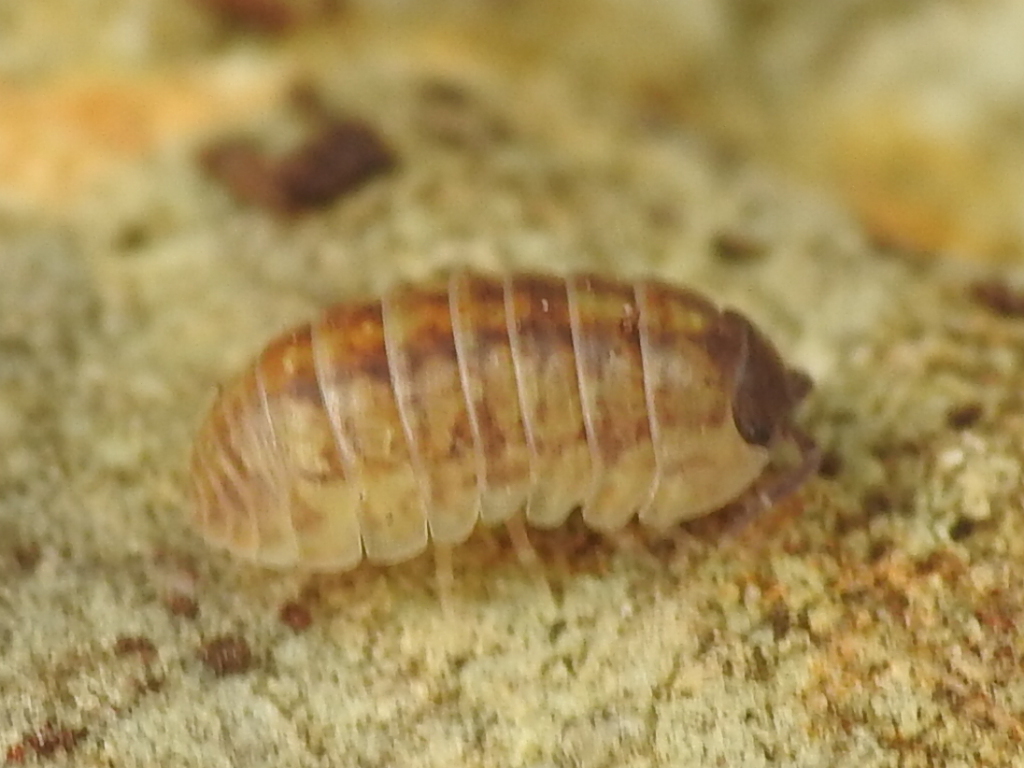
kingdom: Animalia
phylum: Arthropoda
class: Malacostraca
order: Isopoda
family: Armadillidiidae
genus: Armadillidium
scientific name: Armadillidium vulgare
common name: Common pill woodlouse
